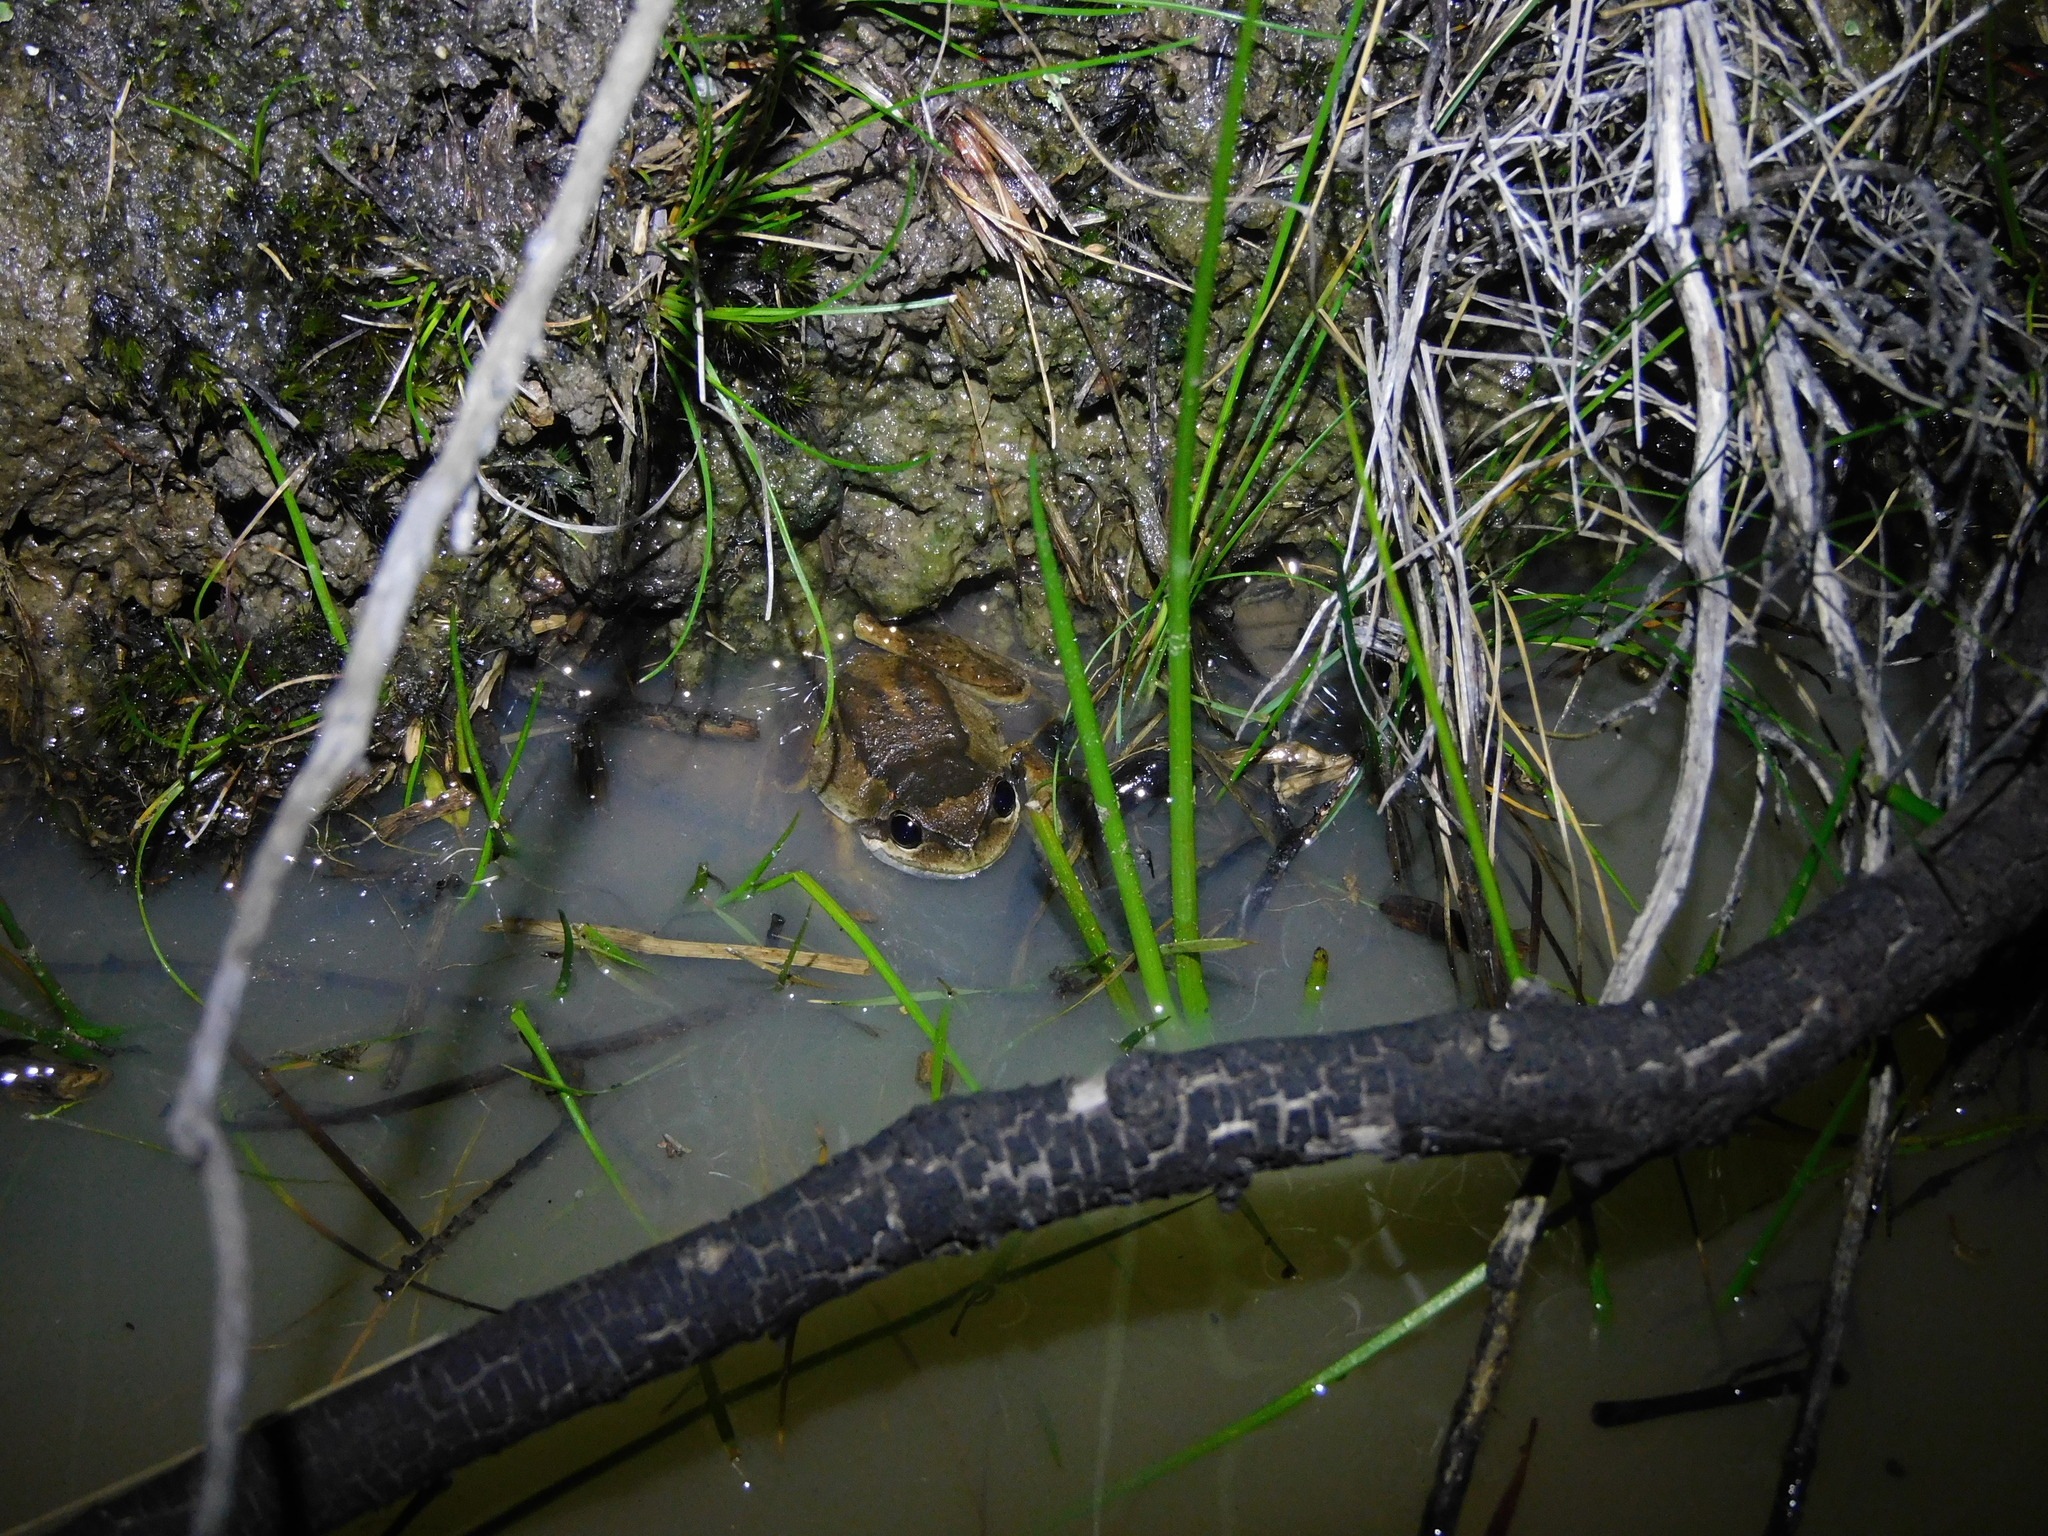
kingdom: Animalia
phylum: Chordata
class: Amphibia
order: Anura
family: Pelodryadidae
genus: Litoria
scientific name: Litoria ewingii
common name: Southern brown tree frog
